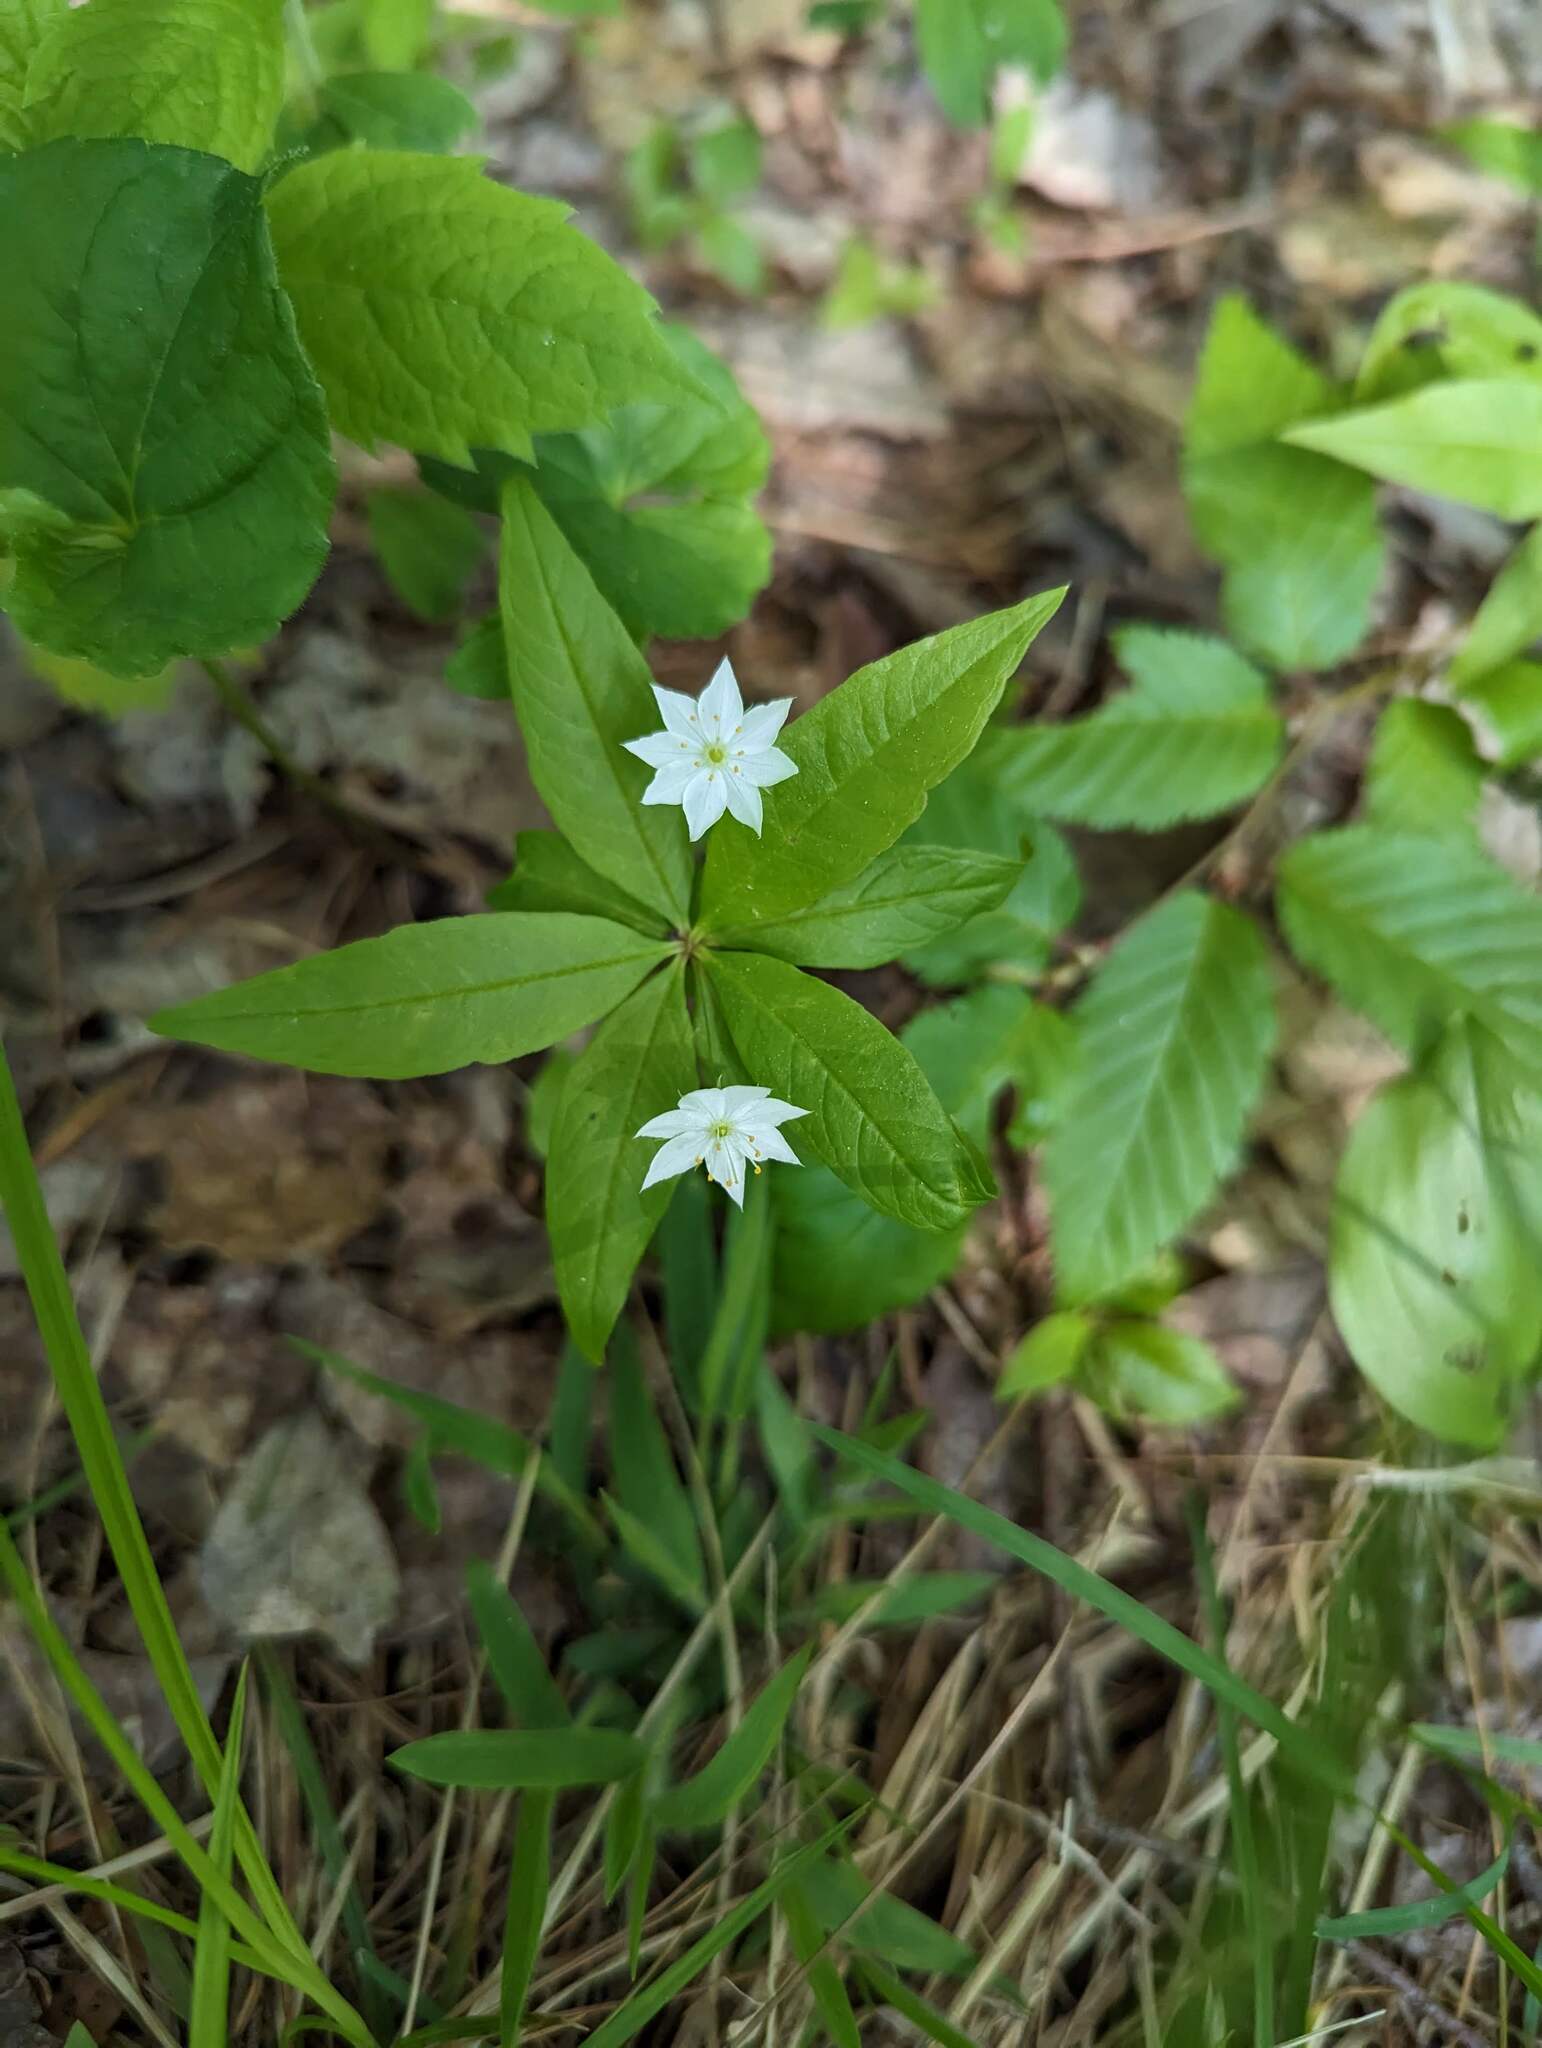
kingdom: Plantae
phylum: Tracheophyta
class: Magnoliopsida
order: Ericales
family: Primulaceae
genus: Lysimachia
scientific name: Lysimachia borealis
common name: American starflower
